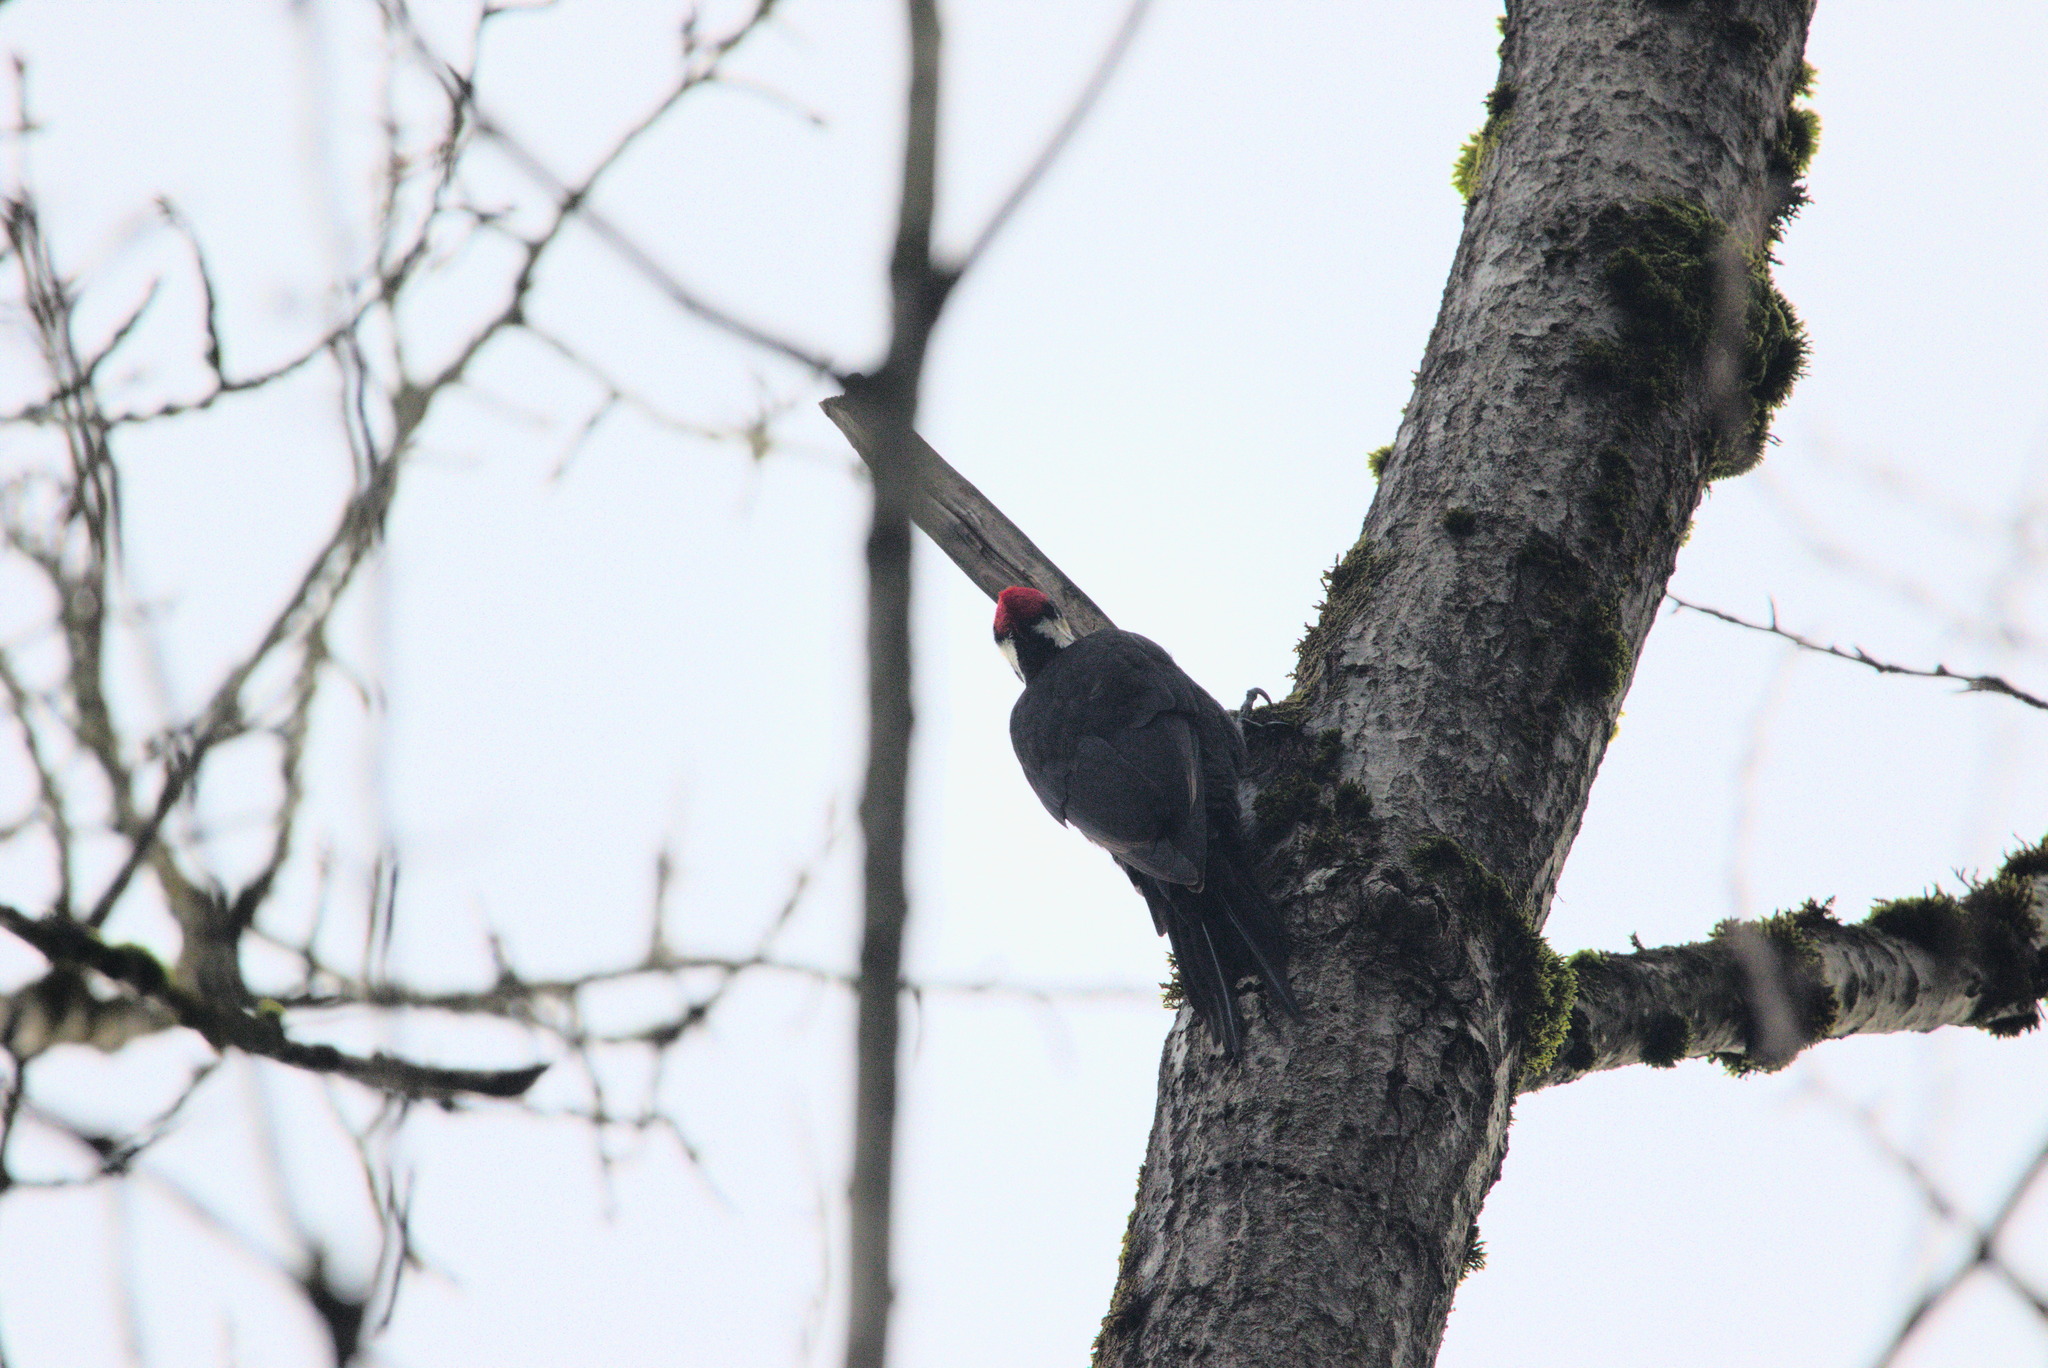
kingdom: Animalia
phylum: Chordata
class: Aves
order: Piciformes
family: Picidae
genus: Dryocopus
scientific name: Dryocopus pileatus
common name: Pileated woodpecker
